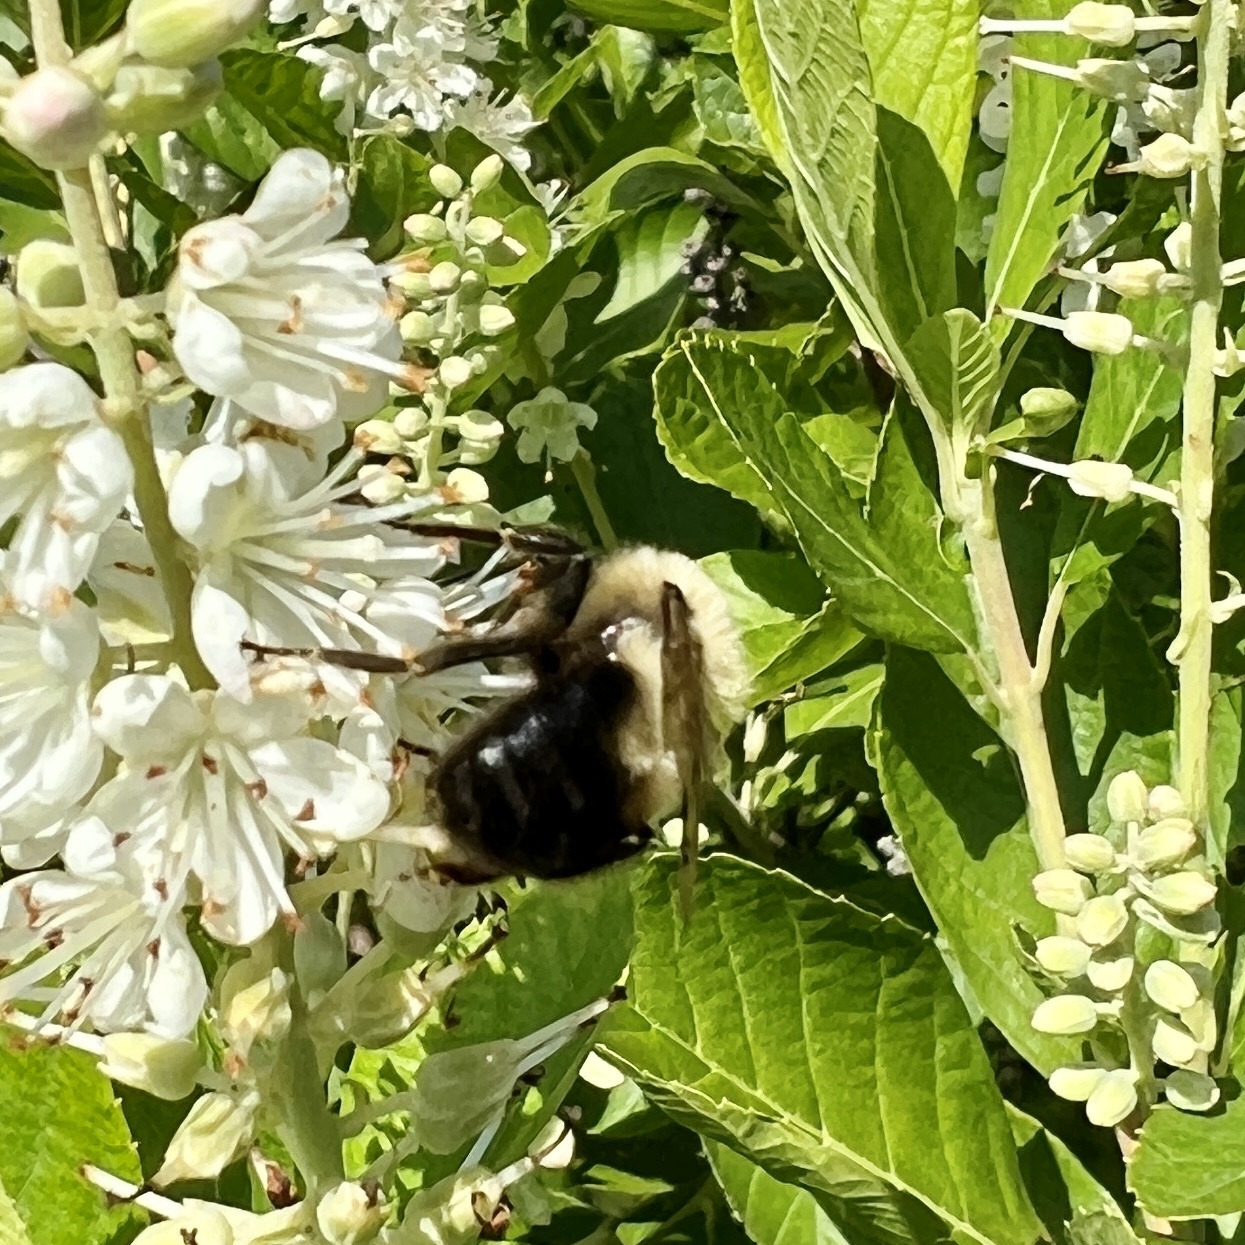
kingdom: Animalia
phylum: Arthropoda
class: Insecta
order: Hymenoptera
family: Apidae
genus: Bombus
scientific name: Bombus bimaculatus
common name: Two-spotted bumble bee
